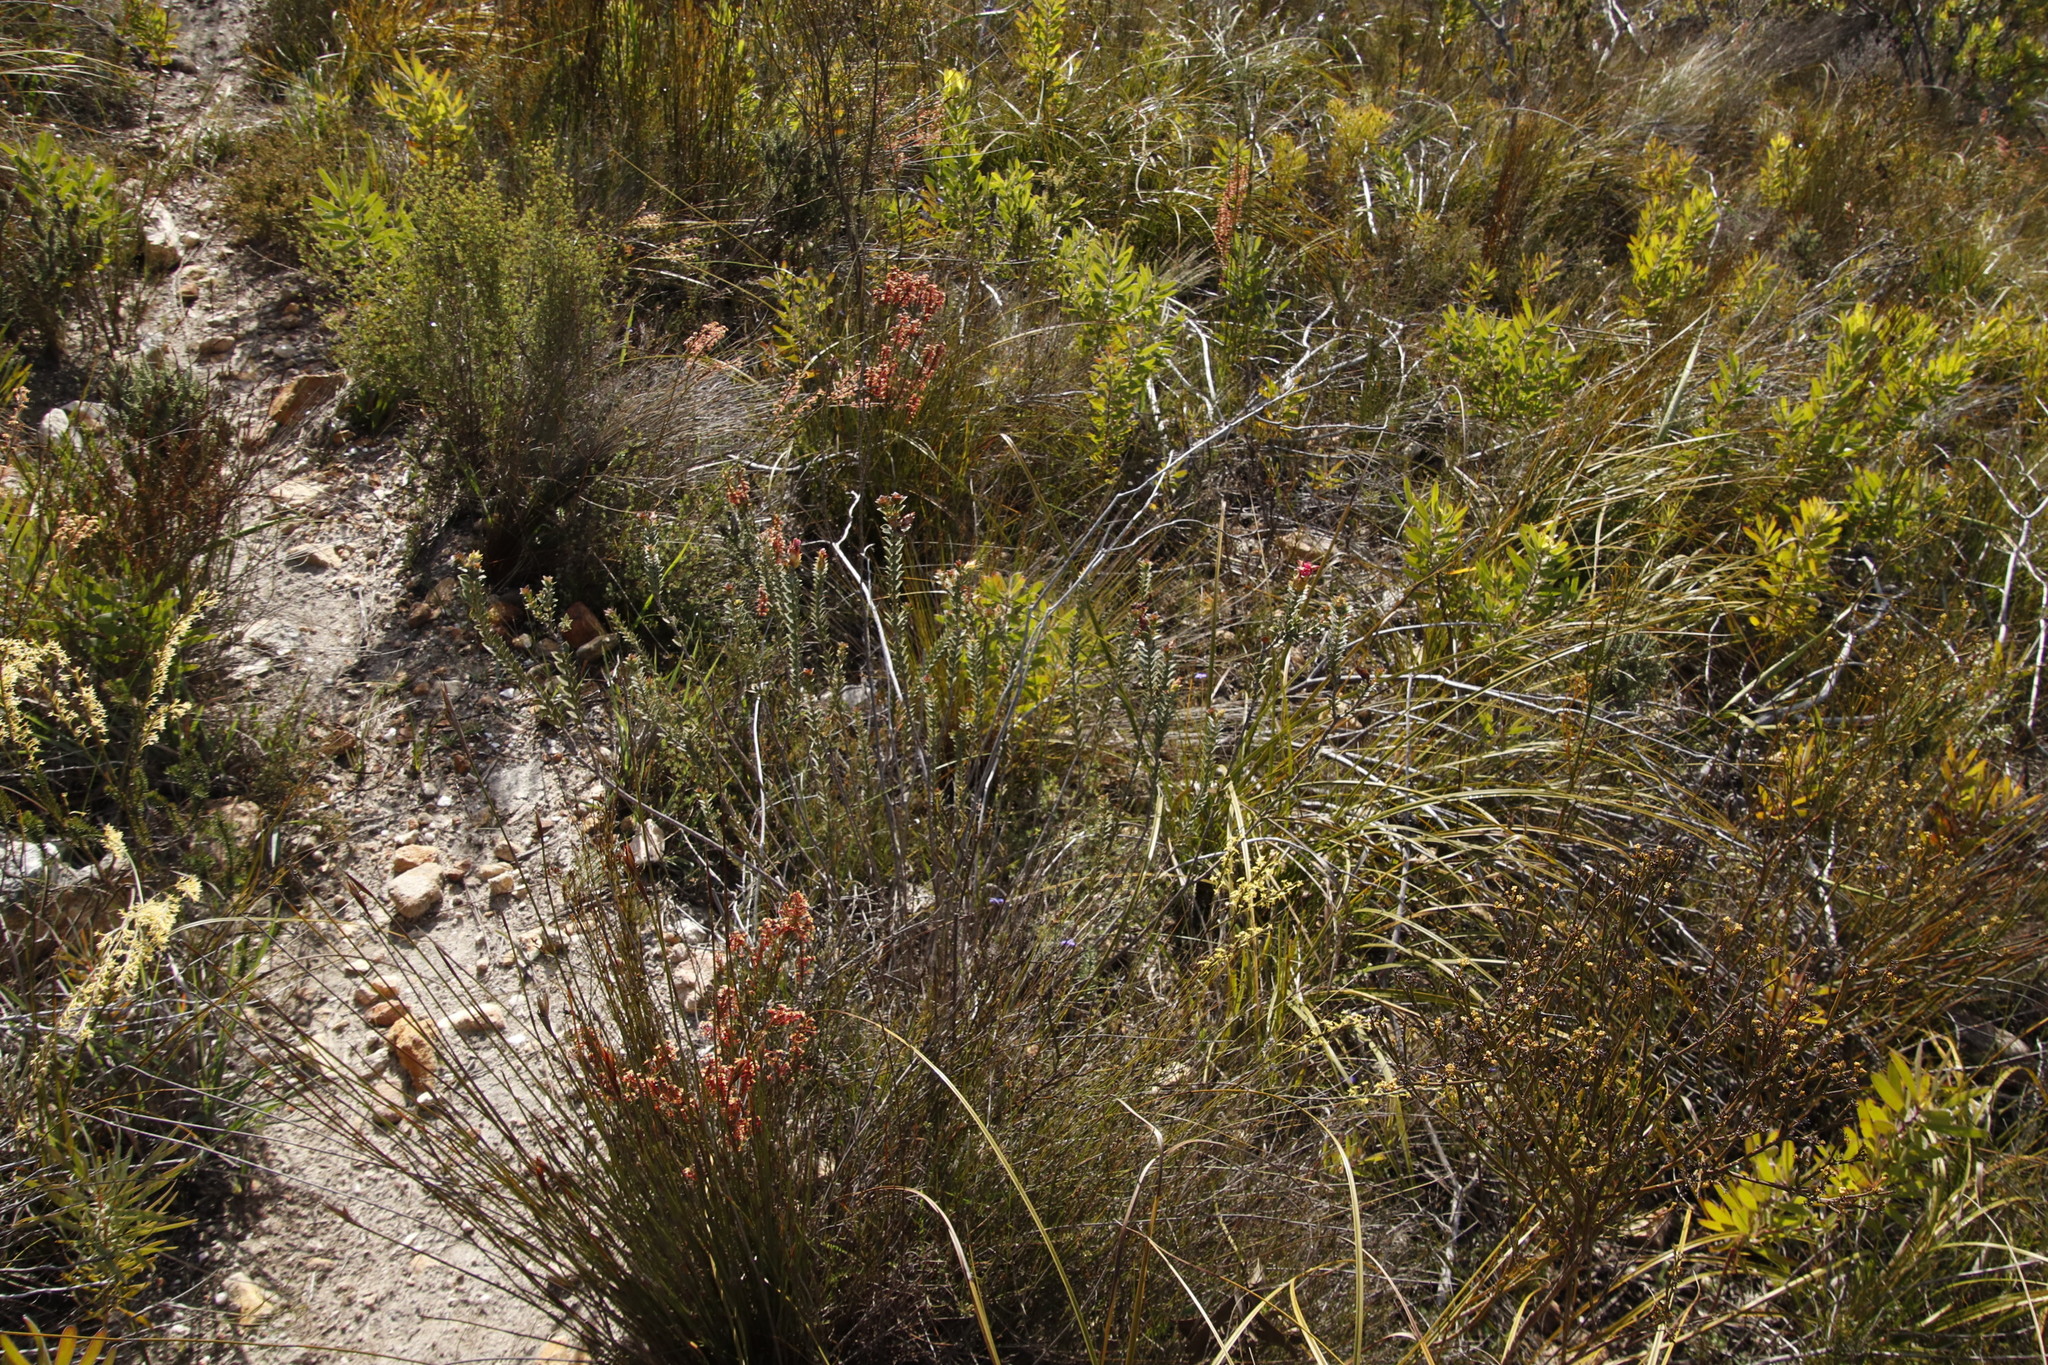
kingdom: Plantae
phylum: Tracheophyta
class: Magnoliopsida
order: Myrtales
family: Penaeaceae
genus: Saltera
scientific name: Saltera sarcocolla
